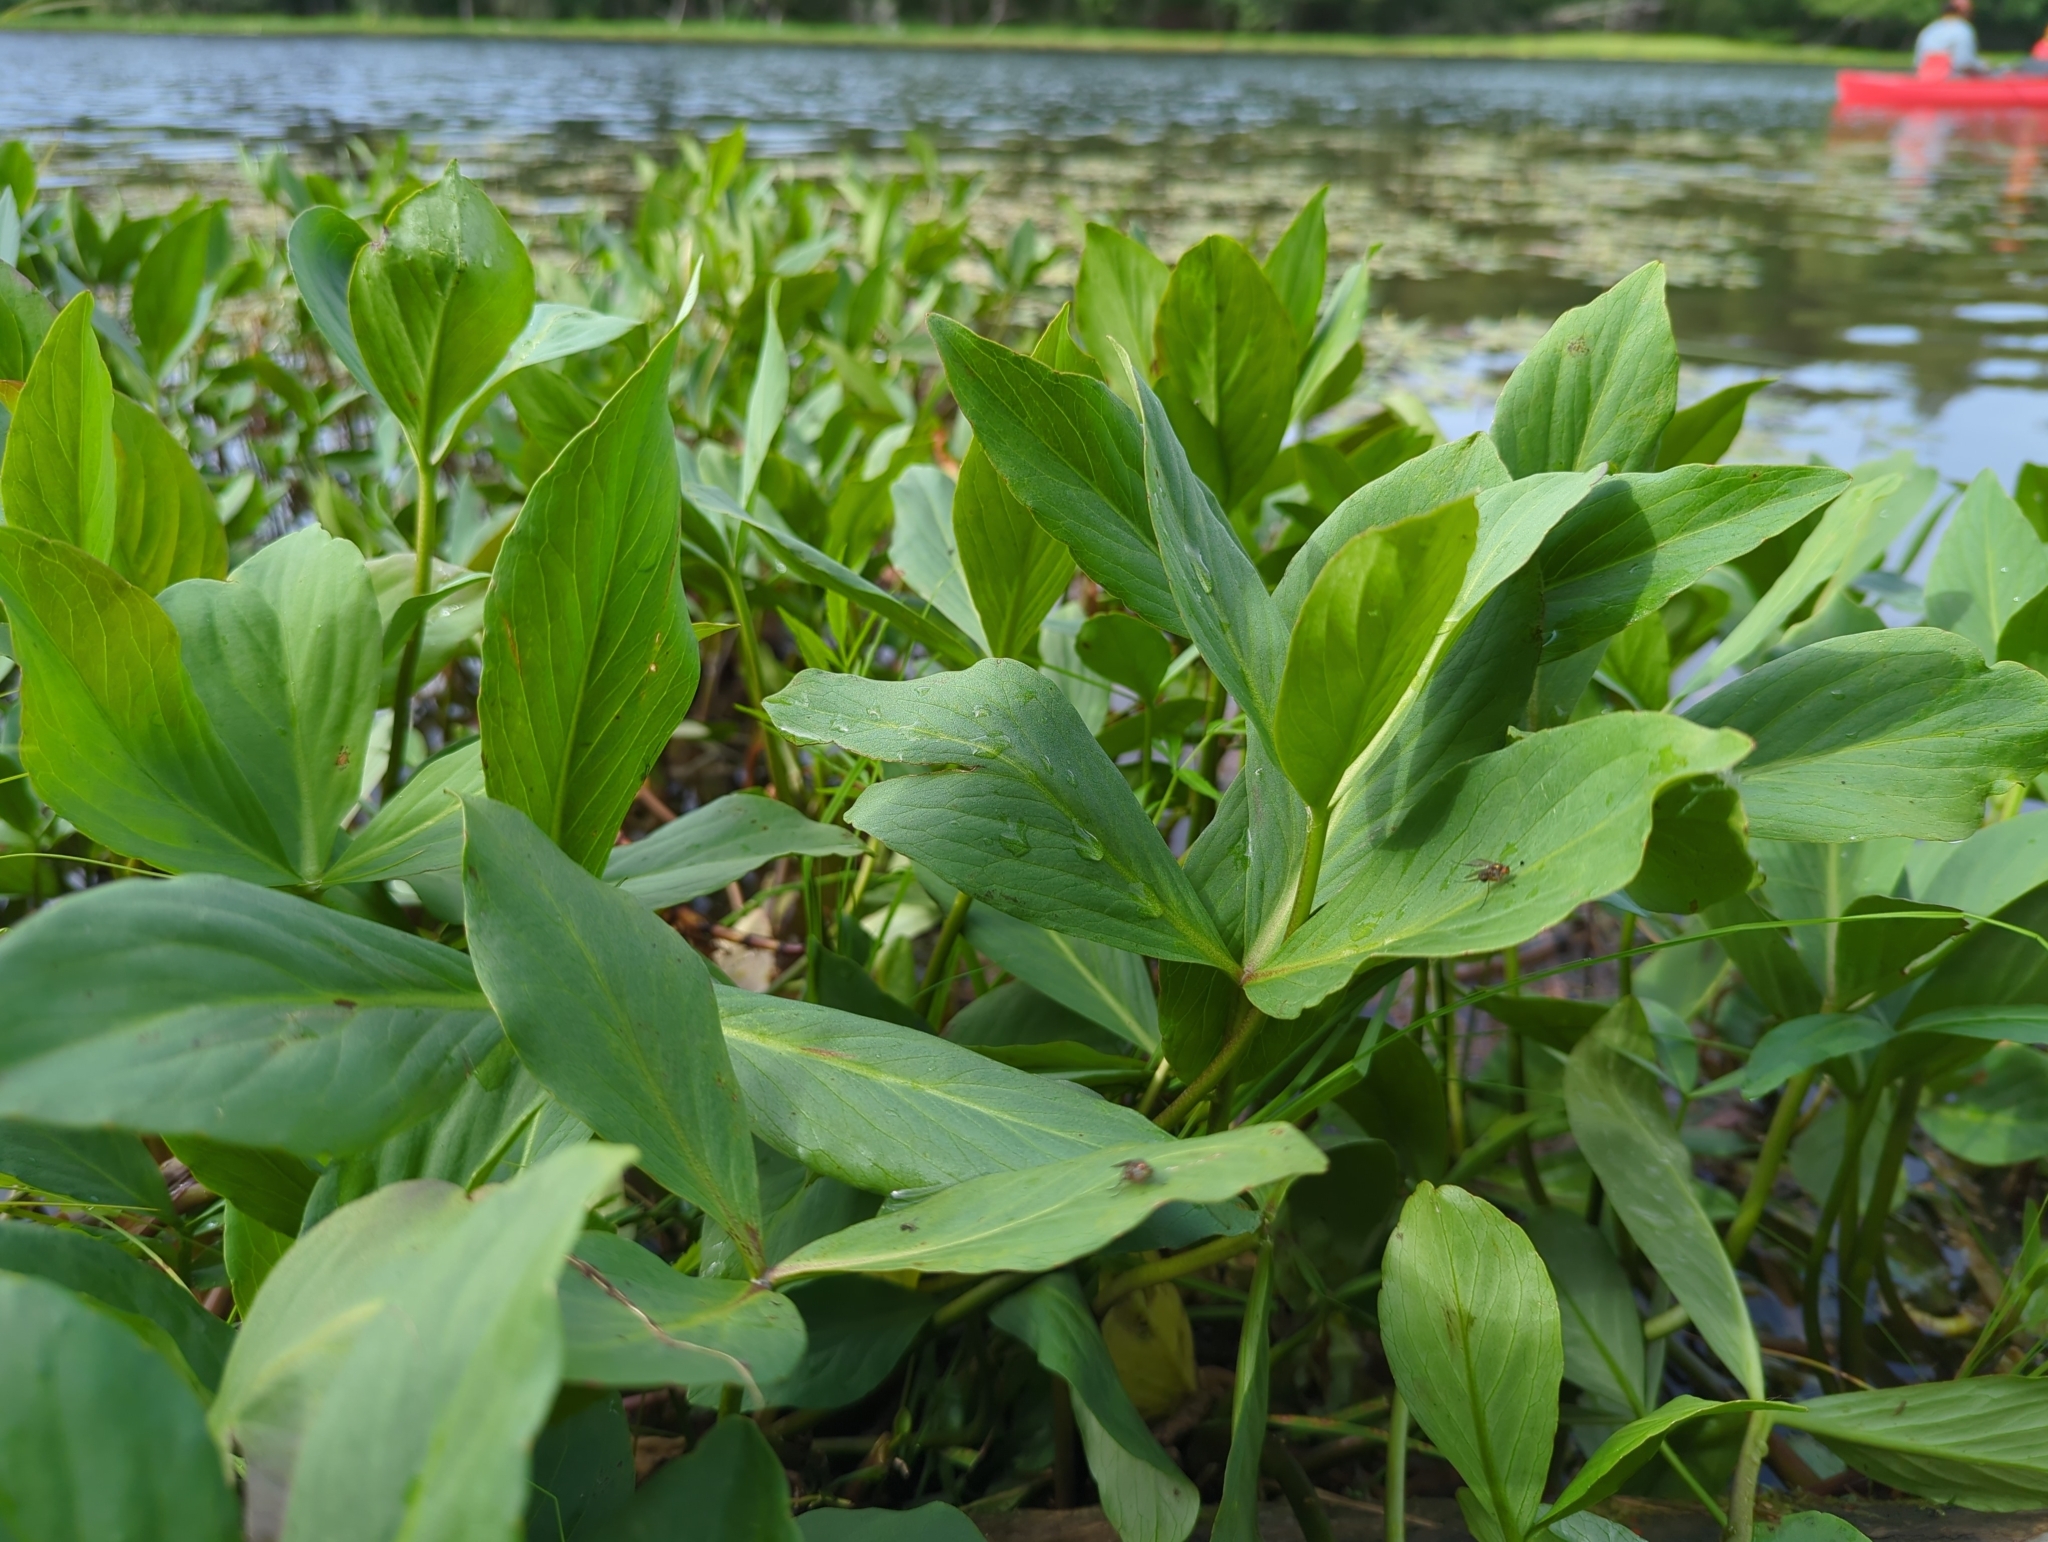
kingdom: Plantae
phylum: Tracheophyta
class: Magnoliopsida
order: Asterales
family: Menyanthaceae
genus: Menyanthes
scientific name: Menyanthes trifoliata
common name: Bogbean
